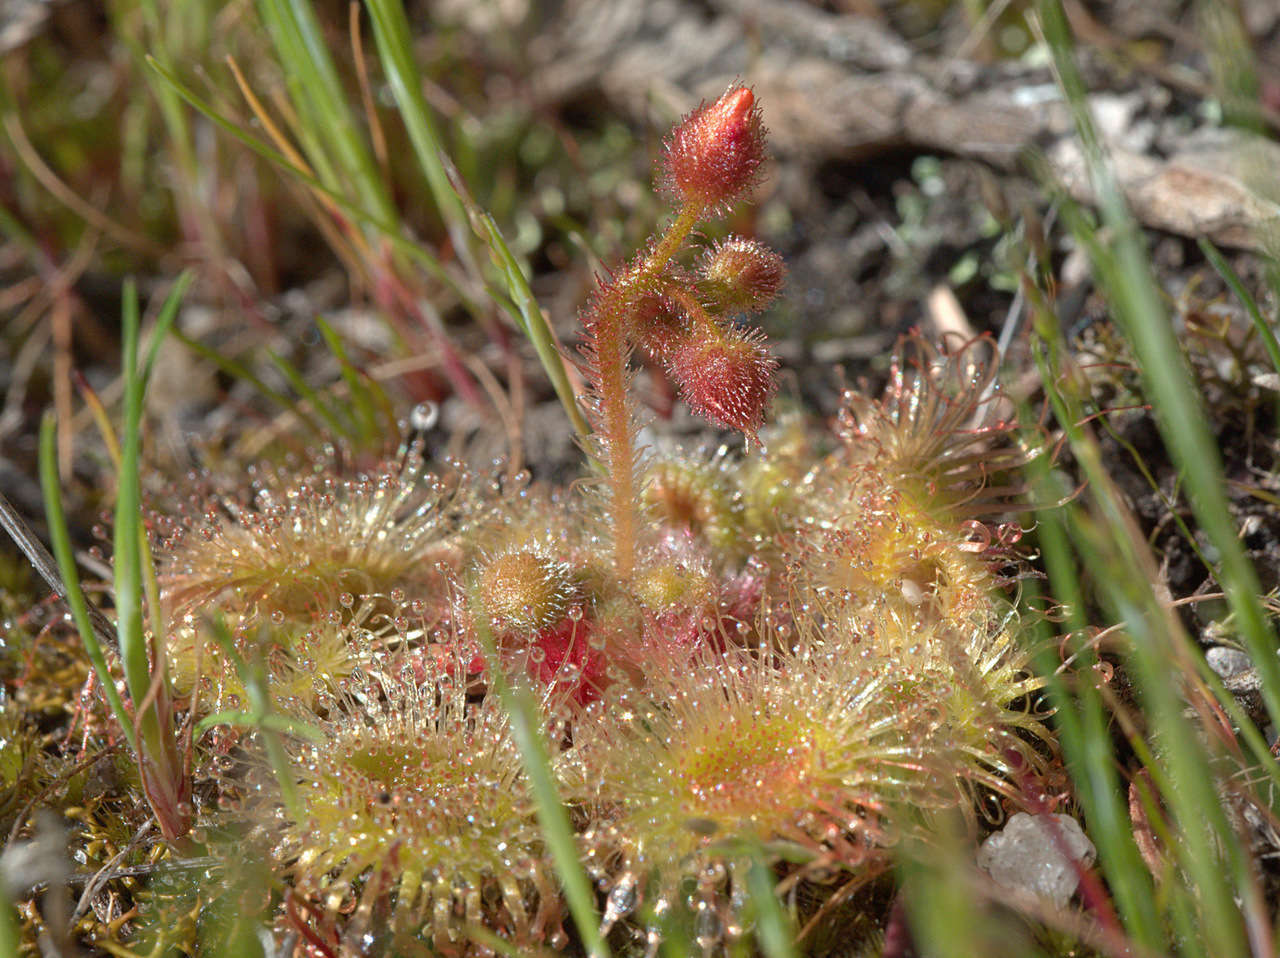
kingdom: Plantae
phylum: Tracheophyta
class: Magnoliopsida
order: Caryophyllales
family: Droseraceae
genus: Drosera
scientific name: Drosera glanduligera
